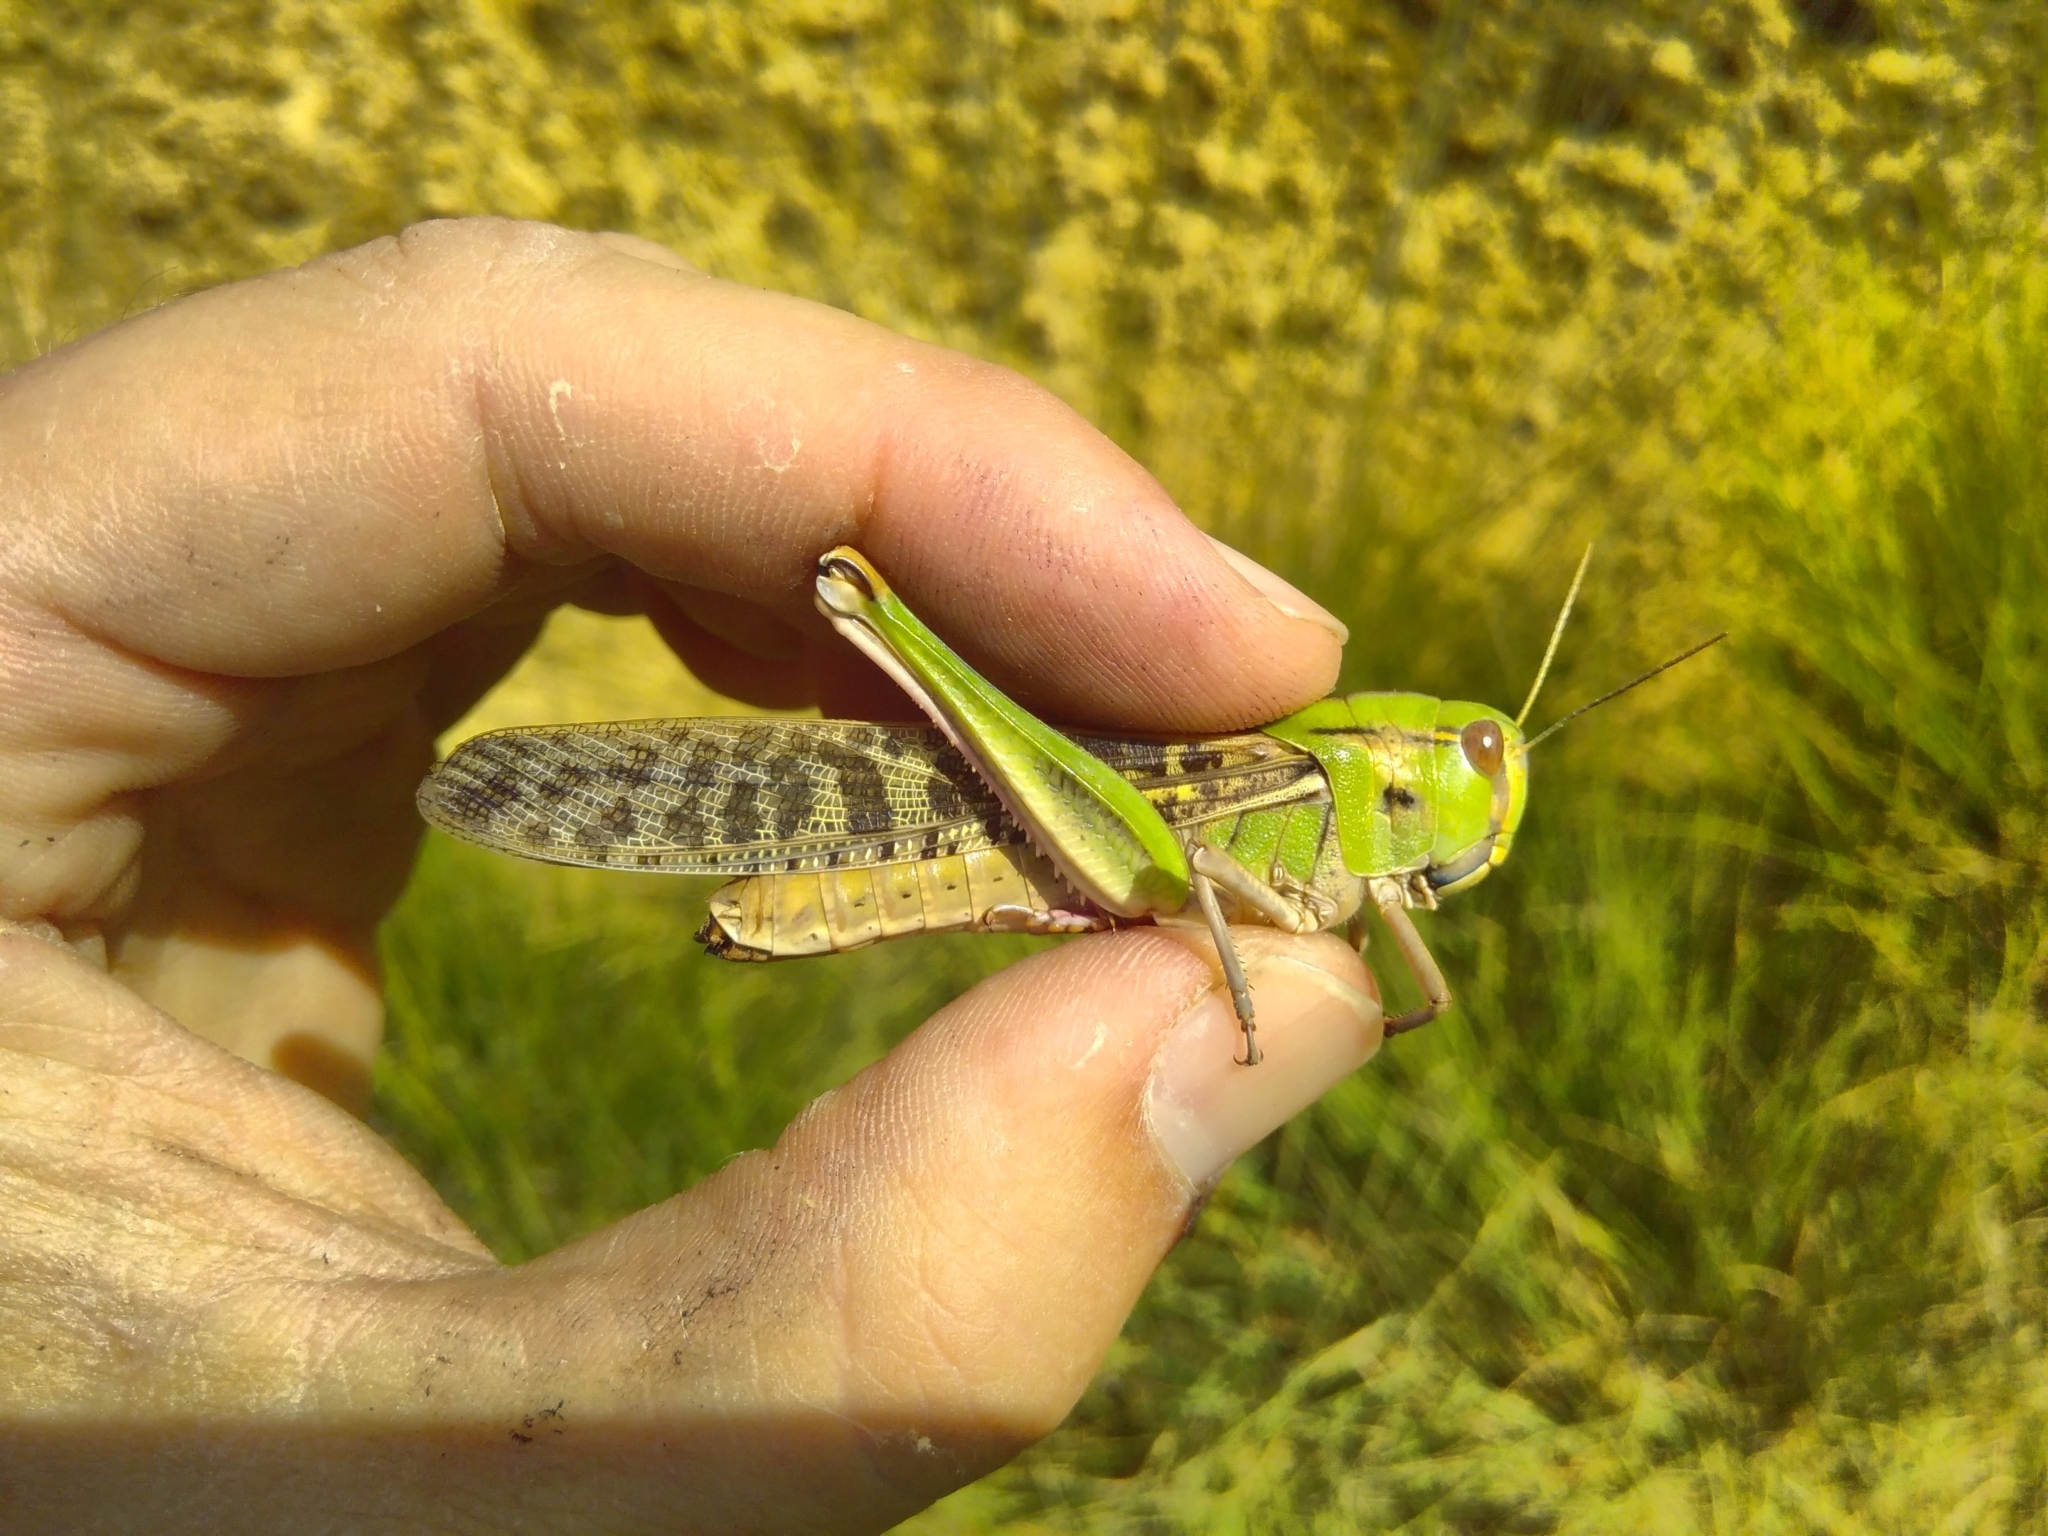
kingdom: Animalia
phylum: Arthropoda
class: Insecta
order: Orthoptera
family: Acrididae
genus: Locusta
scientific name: Locusta migratoria
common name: Migratory locust
